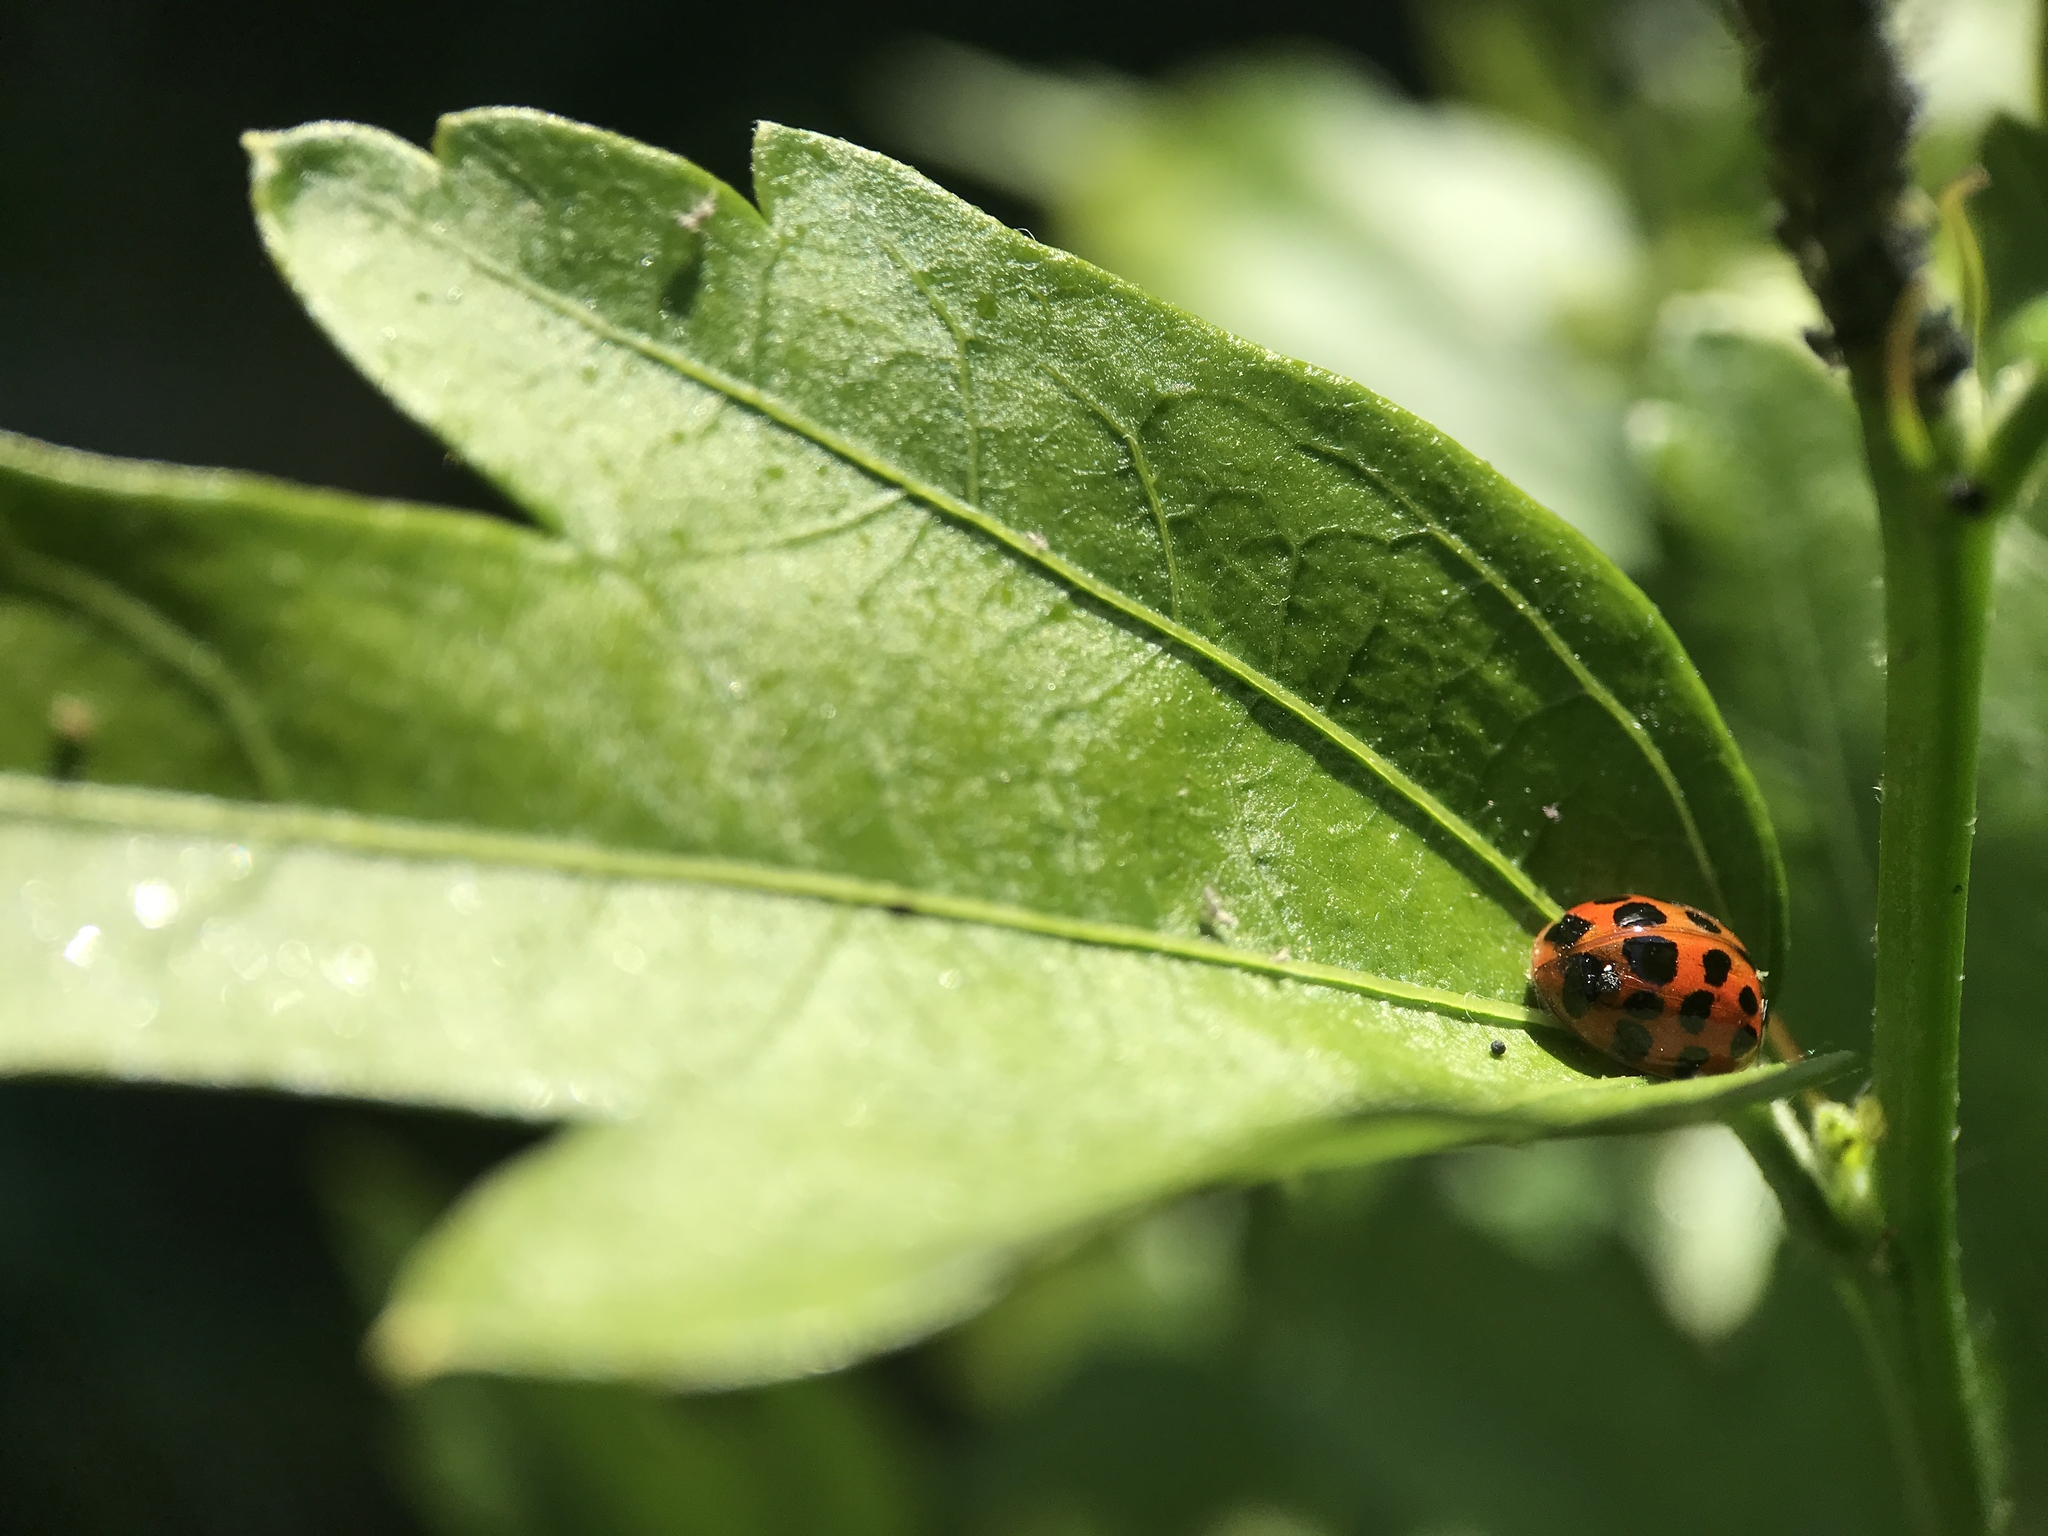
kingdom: Animalia
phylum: Arthropoda
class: Insecta
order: Coleoptera
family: Coccinellidae
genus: Harmonia
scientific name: Harmonia axyridis
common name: Harlequin ladybird
